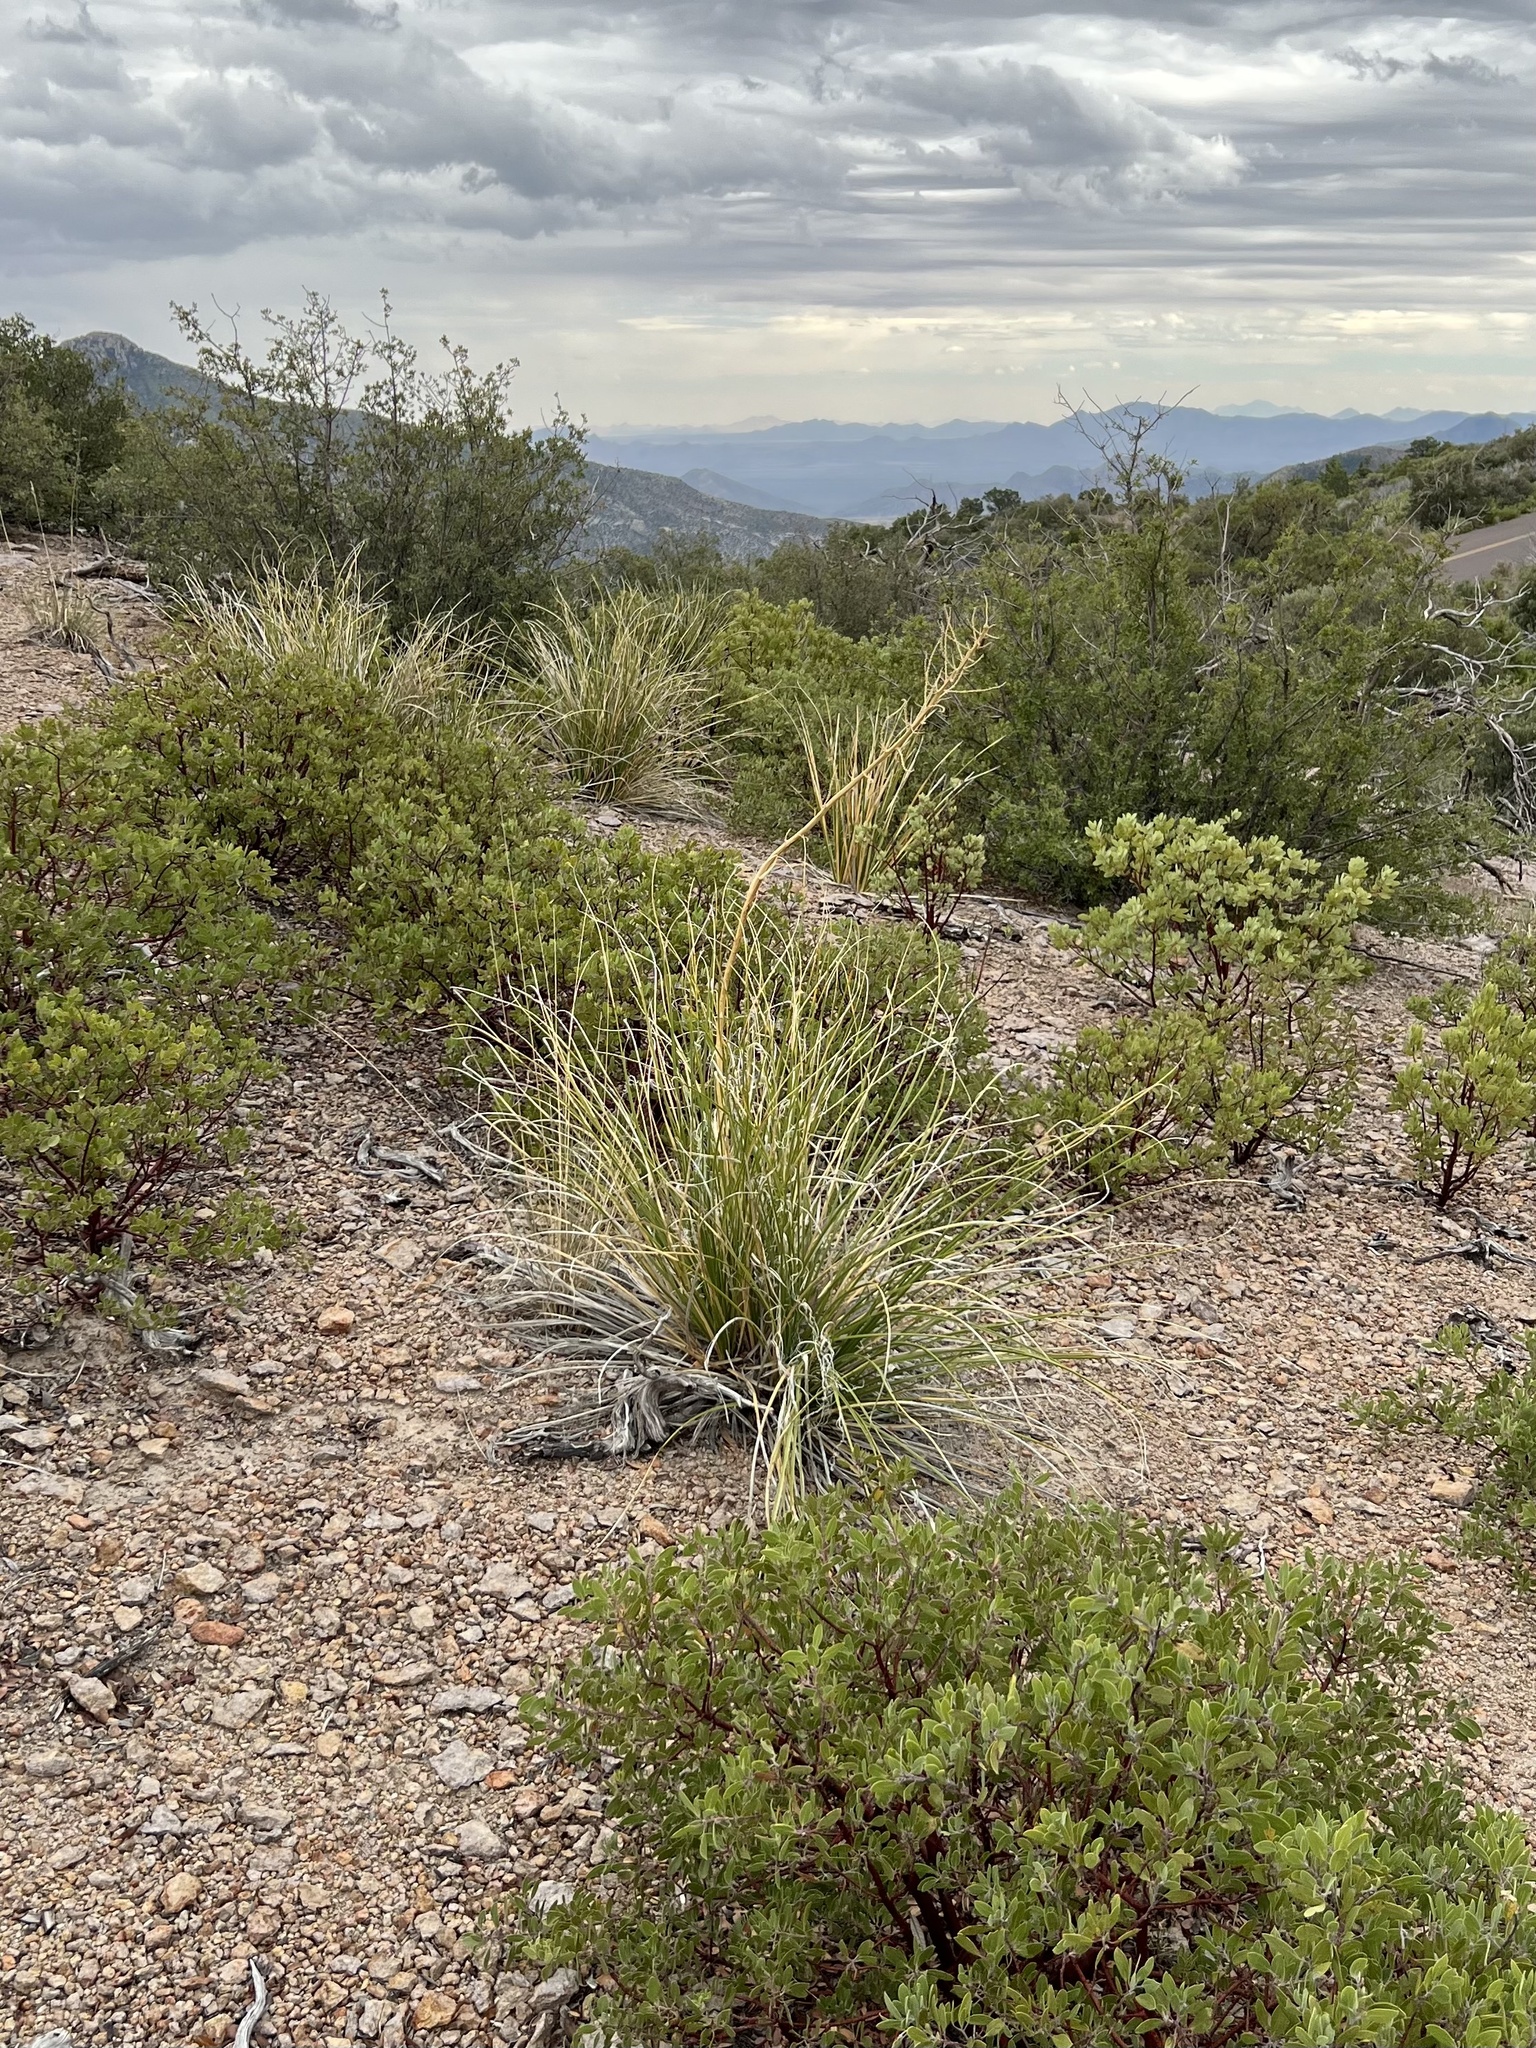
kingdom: Plantae
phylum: Tracheophyta
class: Liliopsida
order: Asparagales
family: Asparagaceae
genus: Nolina
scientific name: Nolina microcarpa
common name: Bear-grass
